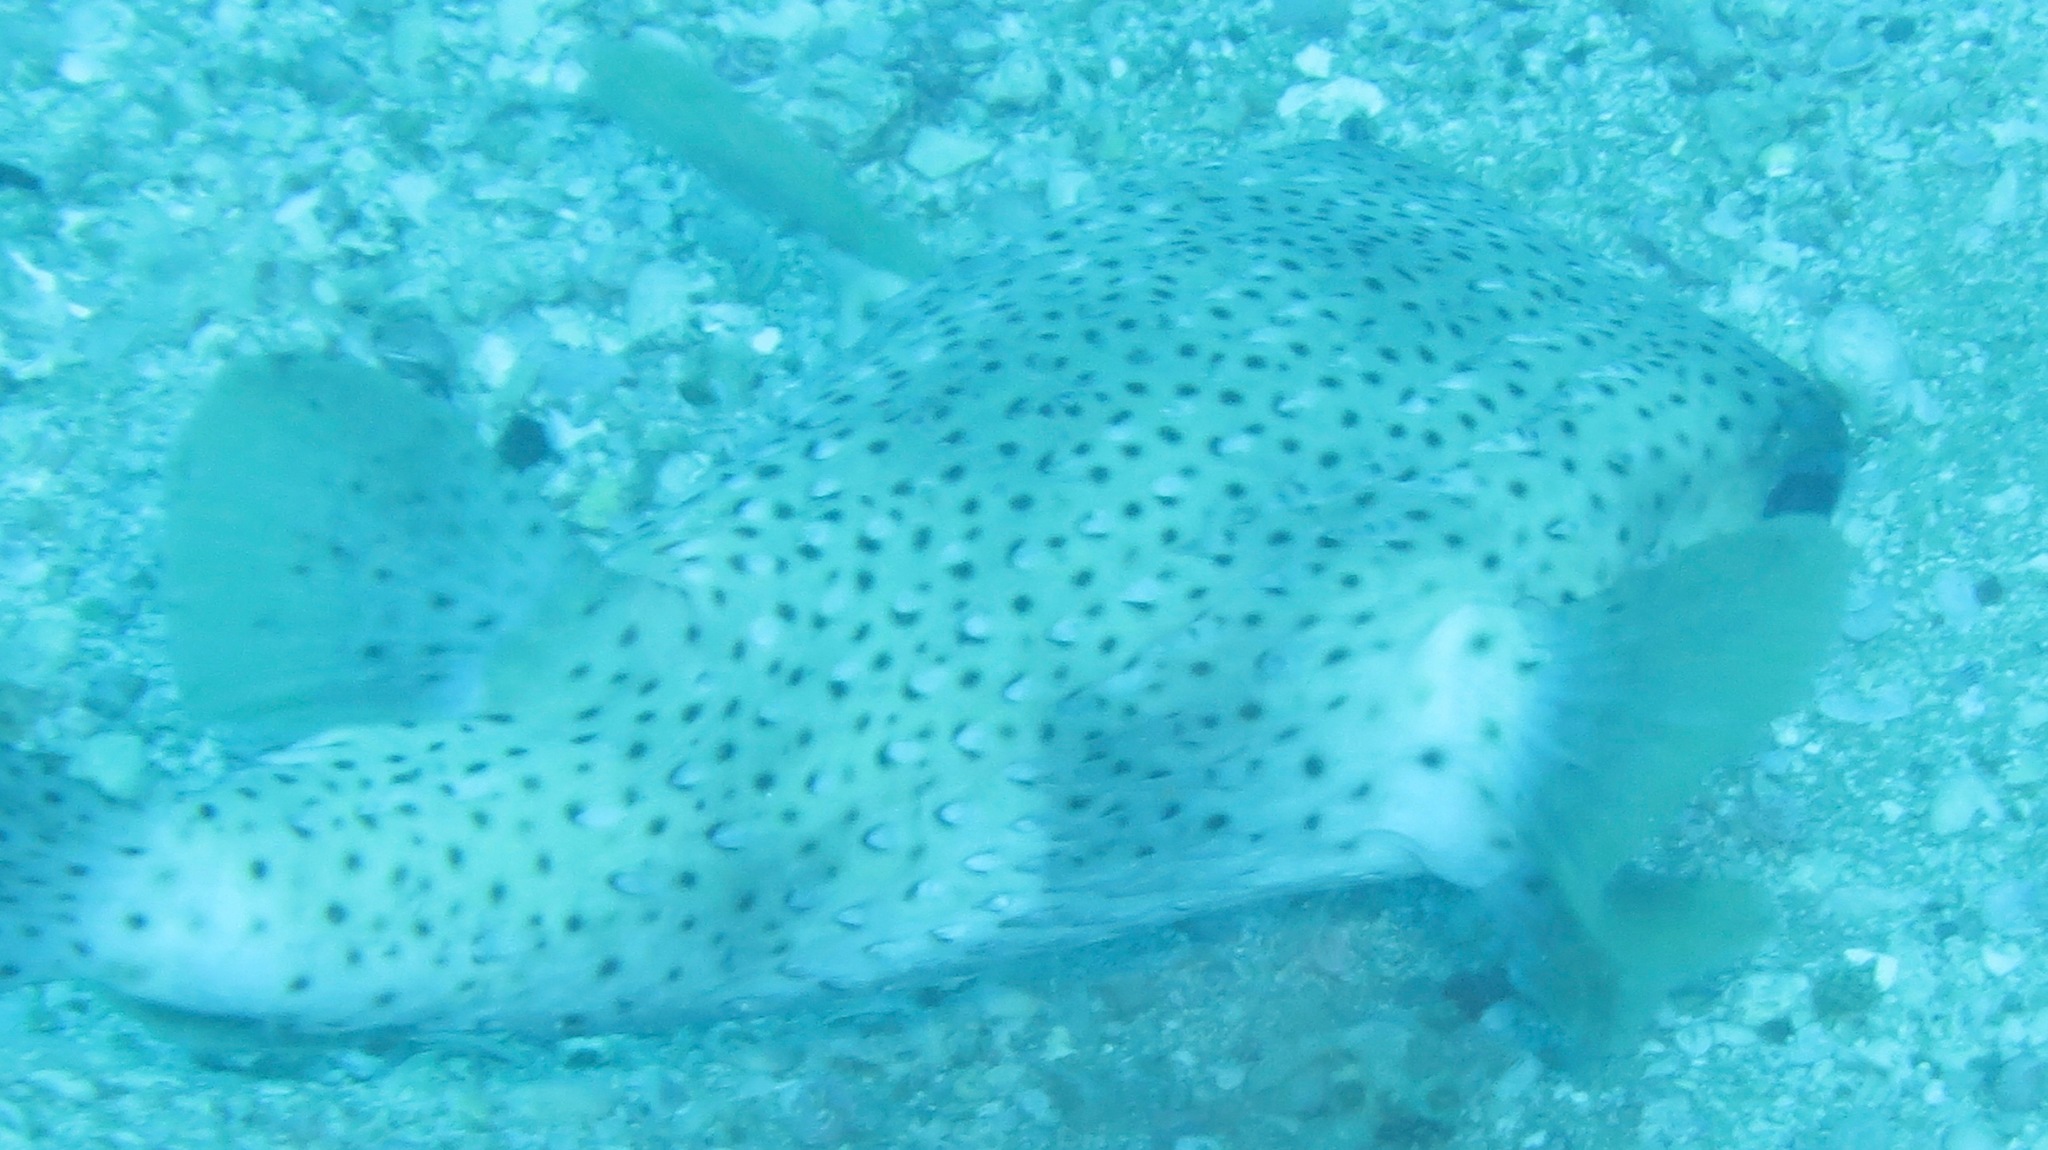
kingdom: Animalia
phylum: Chordata
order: Tetraodontiformes
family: Diodontidae
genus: Diodon
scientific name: Diodon hystrix
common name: Giant porcupinefish
